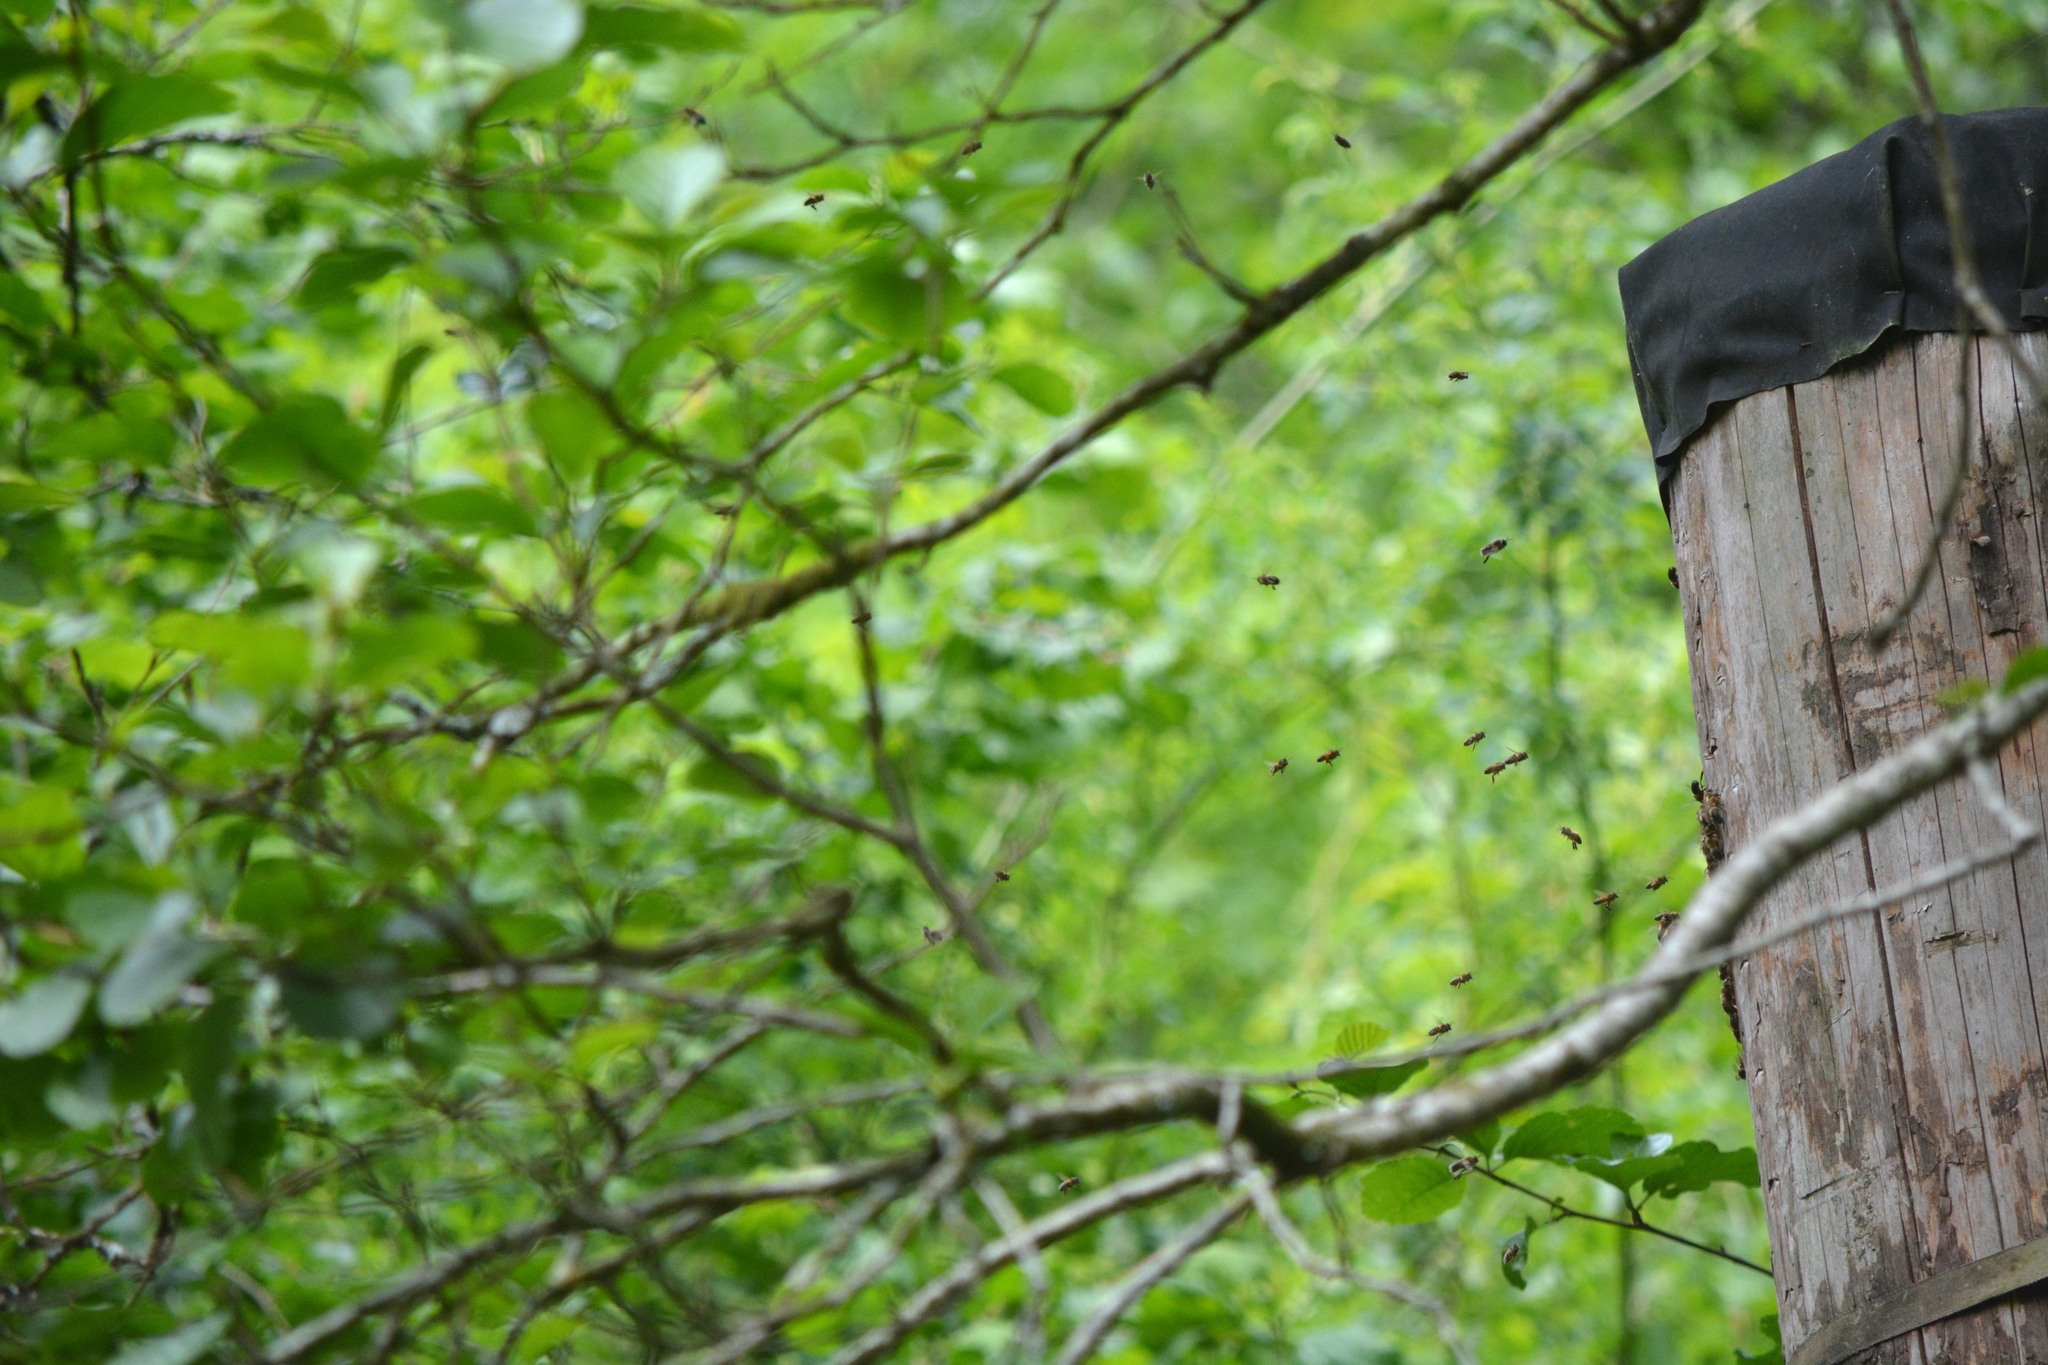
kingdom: Animalia
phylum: Arthropoda
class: Insecta
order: Hymenoptera
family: Apidae
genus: Apis
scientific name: Apis mellifera
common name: Honey bee
